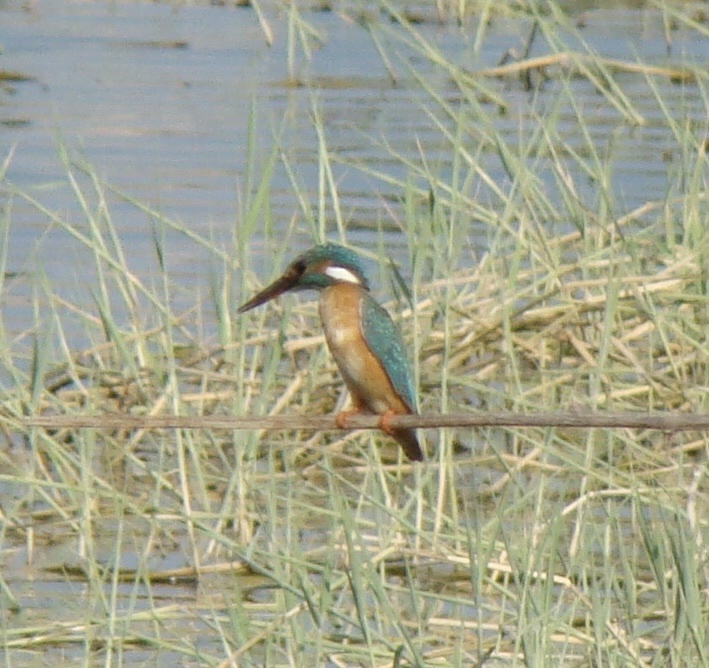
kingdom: Animalia
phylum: Chordata
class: Aves
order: Coraciiformes
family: Alcedinidae
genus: Alcedo
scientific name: Alcedo atthis
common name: Common kingfisher
